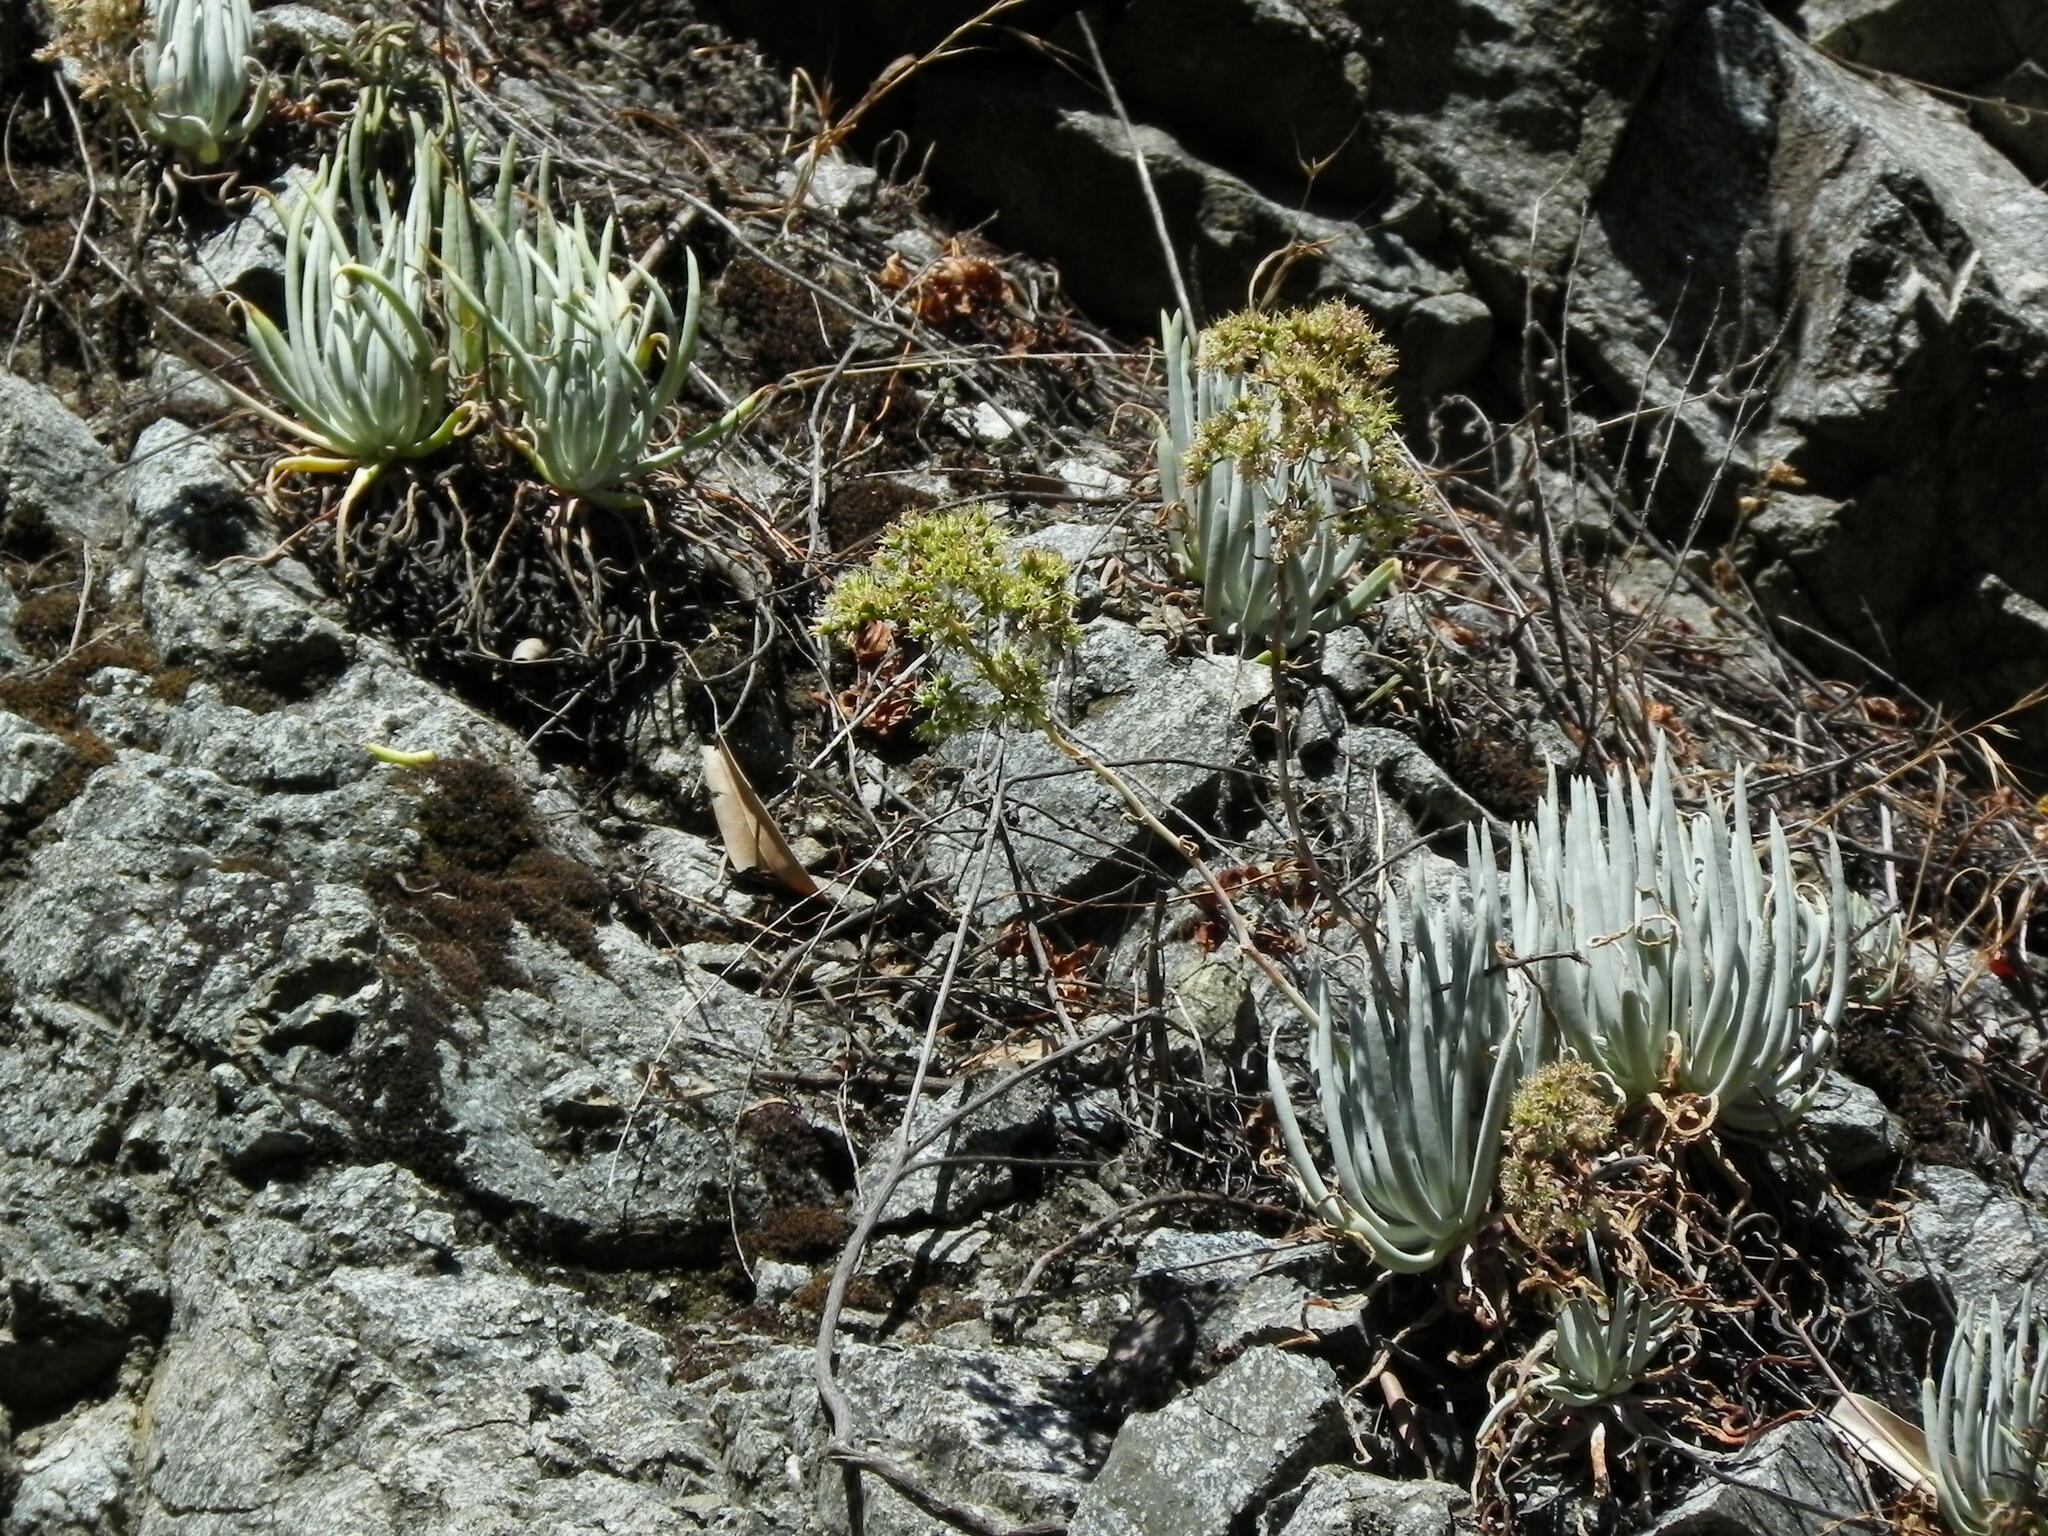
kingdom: Plantae
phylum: Tracheophyta
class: Magnoliopsida
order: Saxifragales
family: Crassulaceae
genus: Dudleya
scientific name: Dudleya densiflora
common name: San gabriel mountains dudleya
